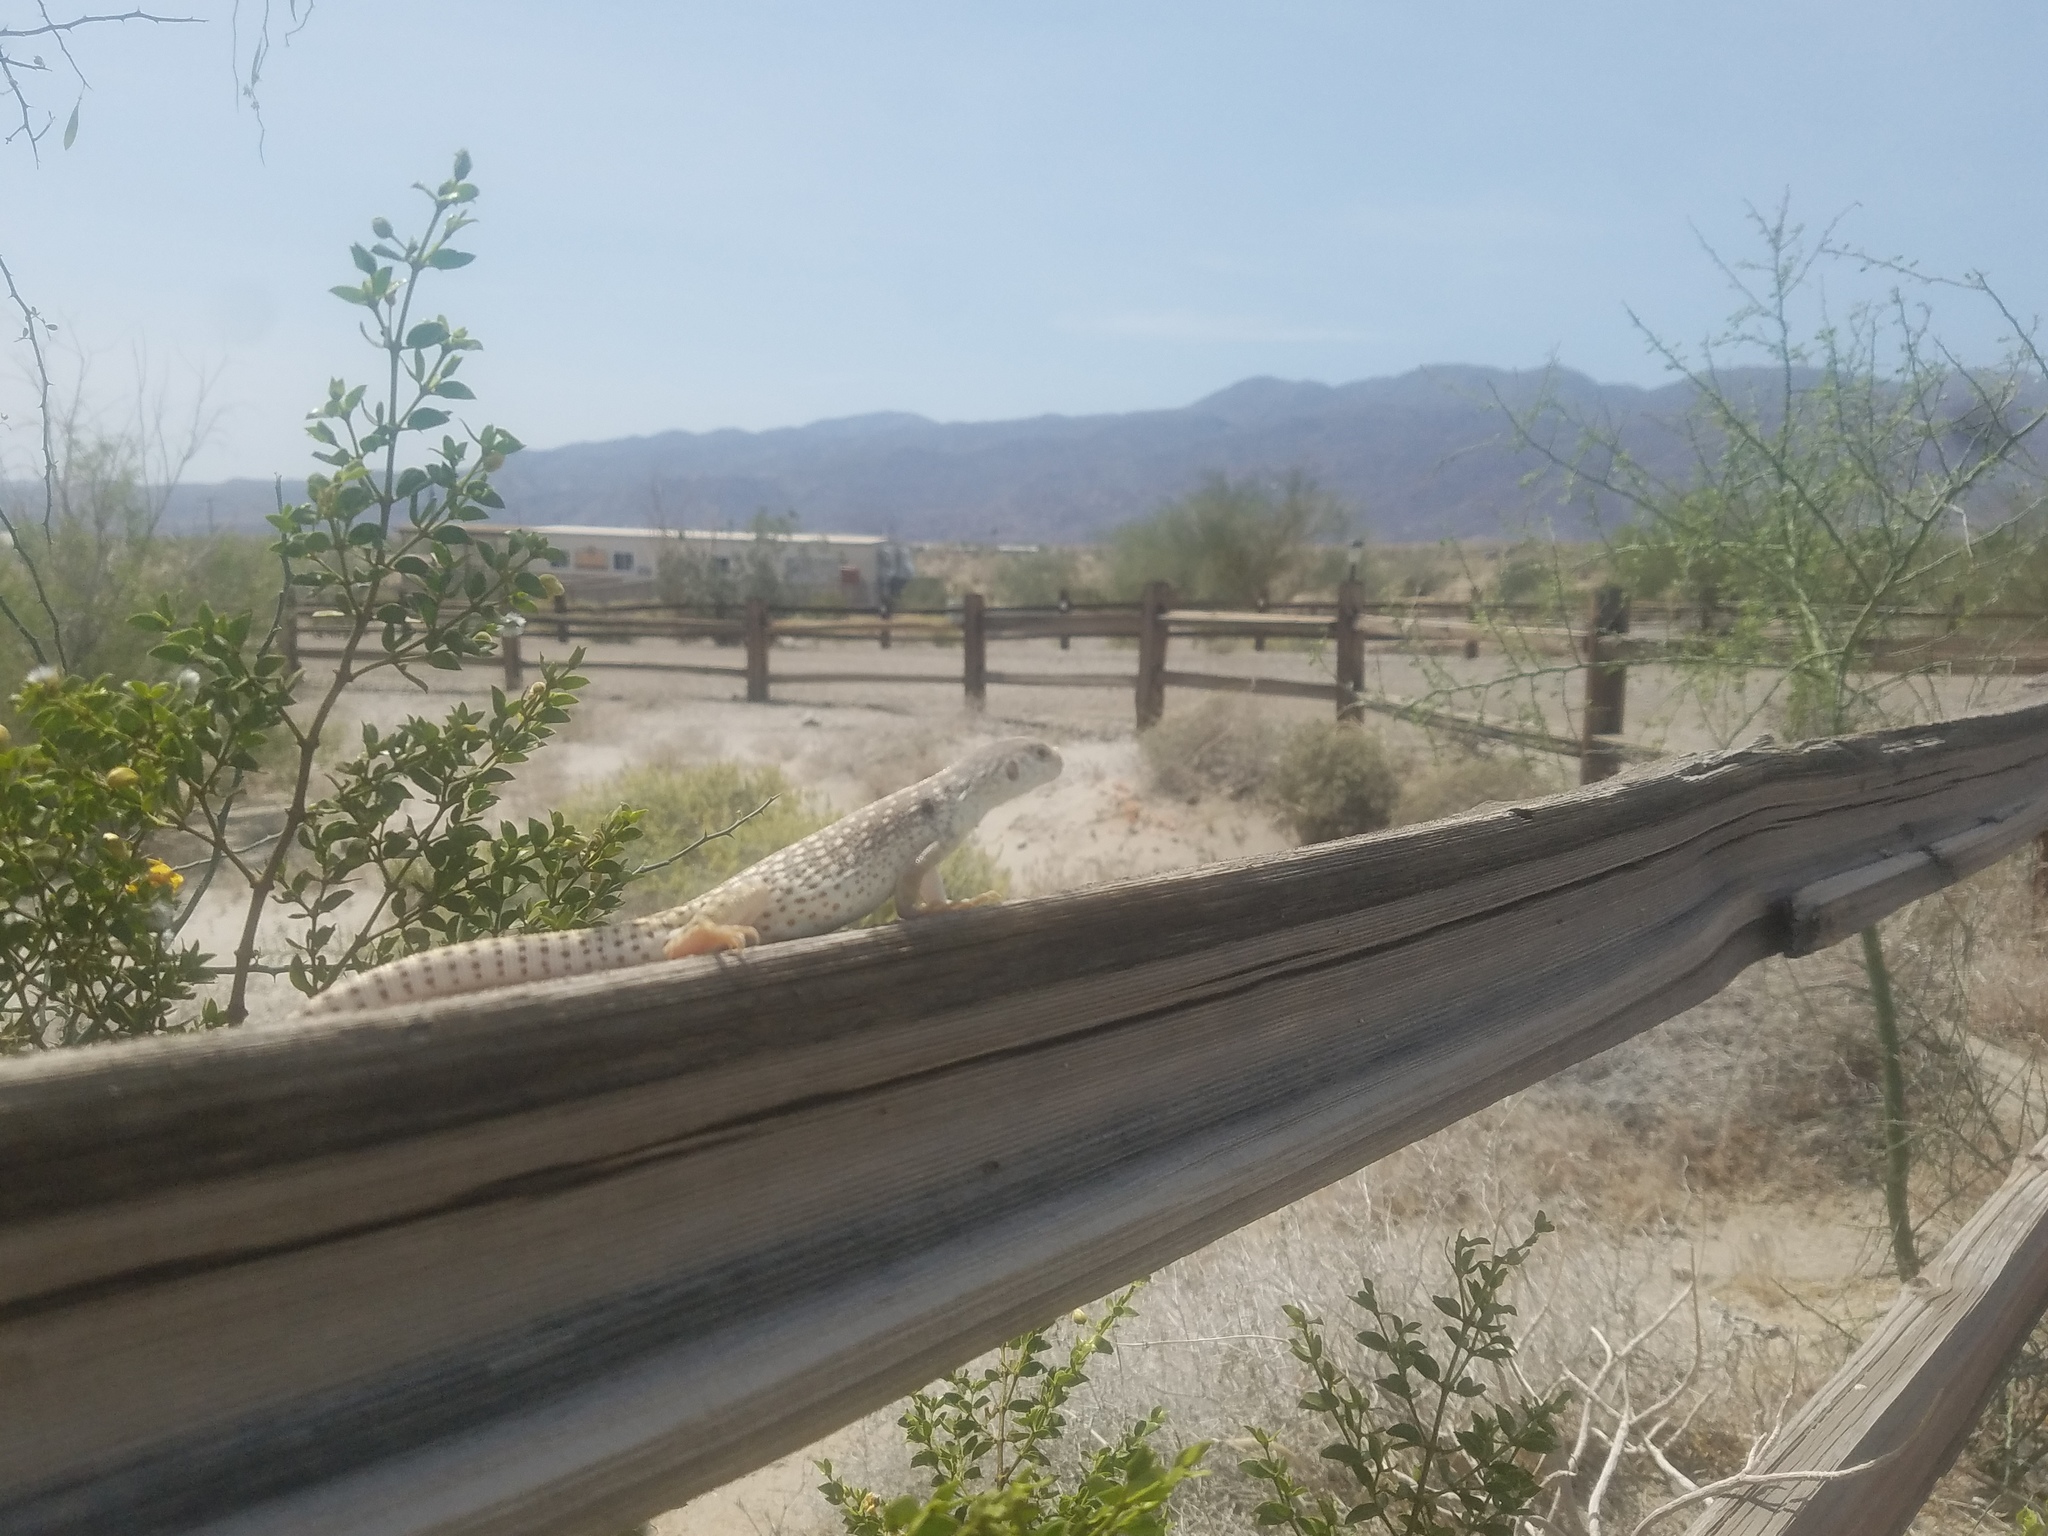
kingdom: Animalia
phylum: Chordata
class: Squamata
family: Iguanidae
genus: Dipsosaurus
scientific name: Dipsosaurus dorsalis
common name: Desert iguana
